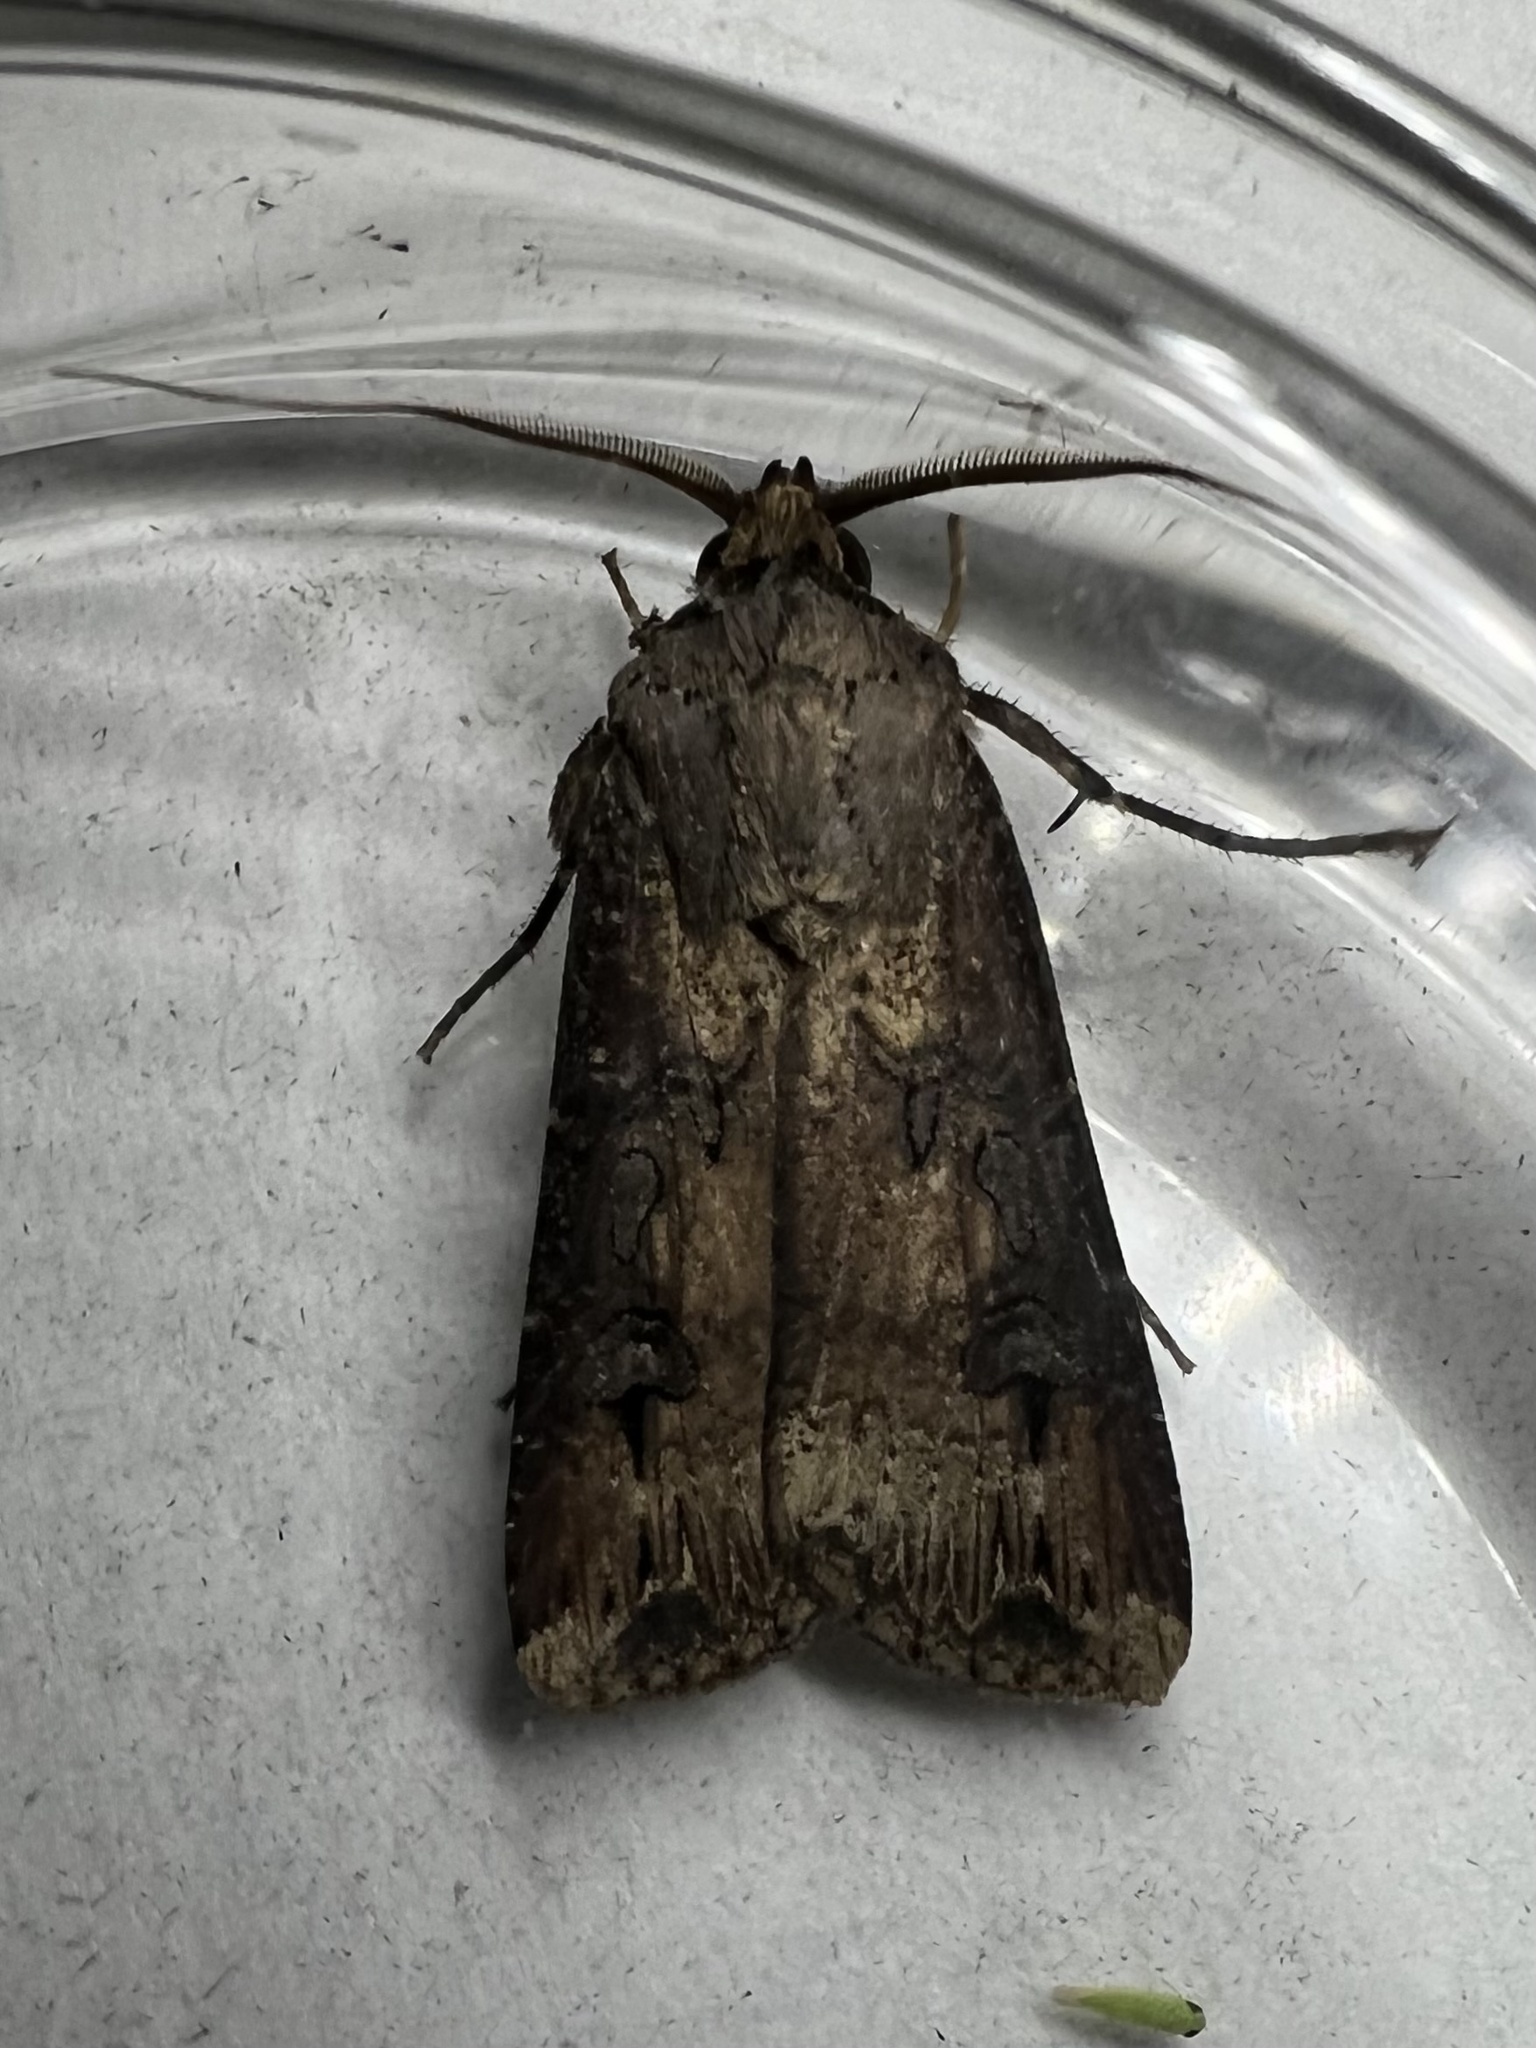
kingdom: Animalia
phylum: Arthropoda
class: Insecta
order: Lepidoptera
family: Noctuidae
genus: Agrotis
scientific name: Agrotis ipsilon
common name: Dark sword-grass
